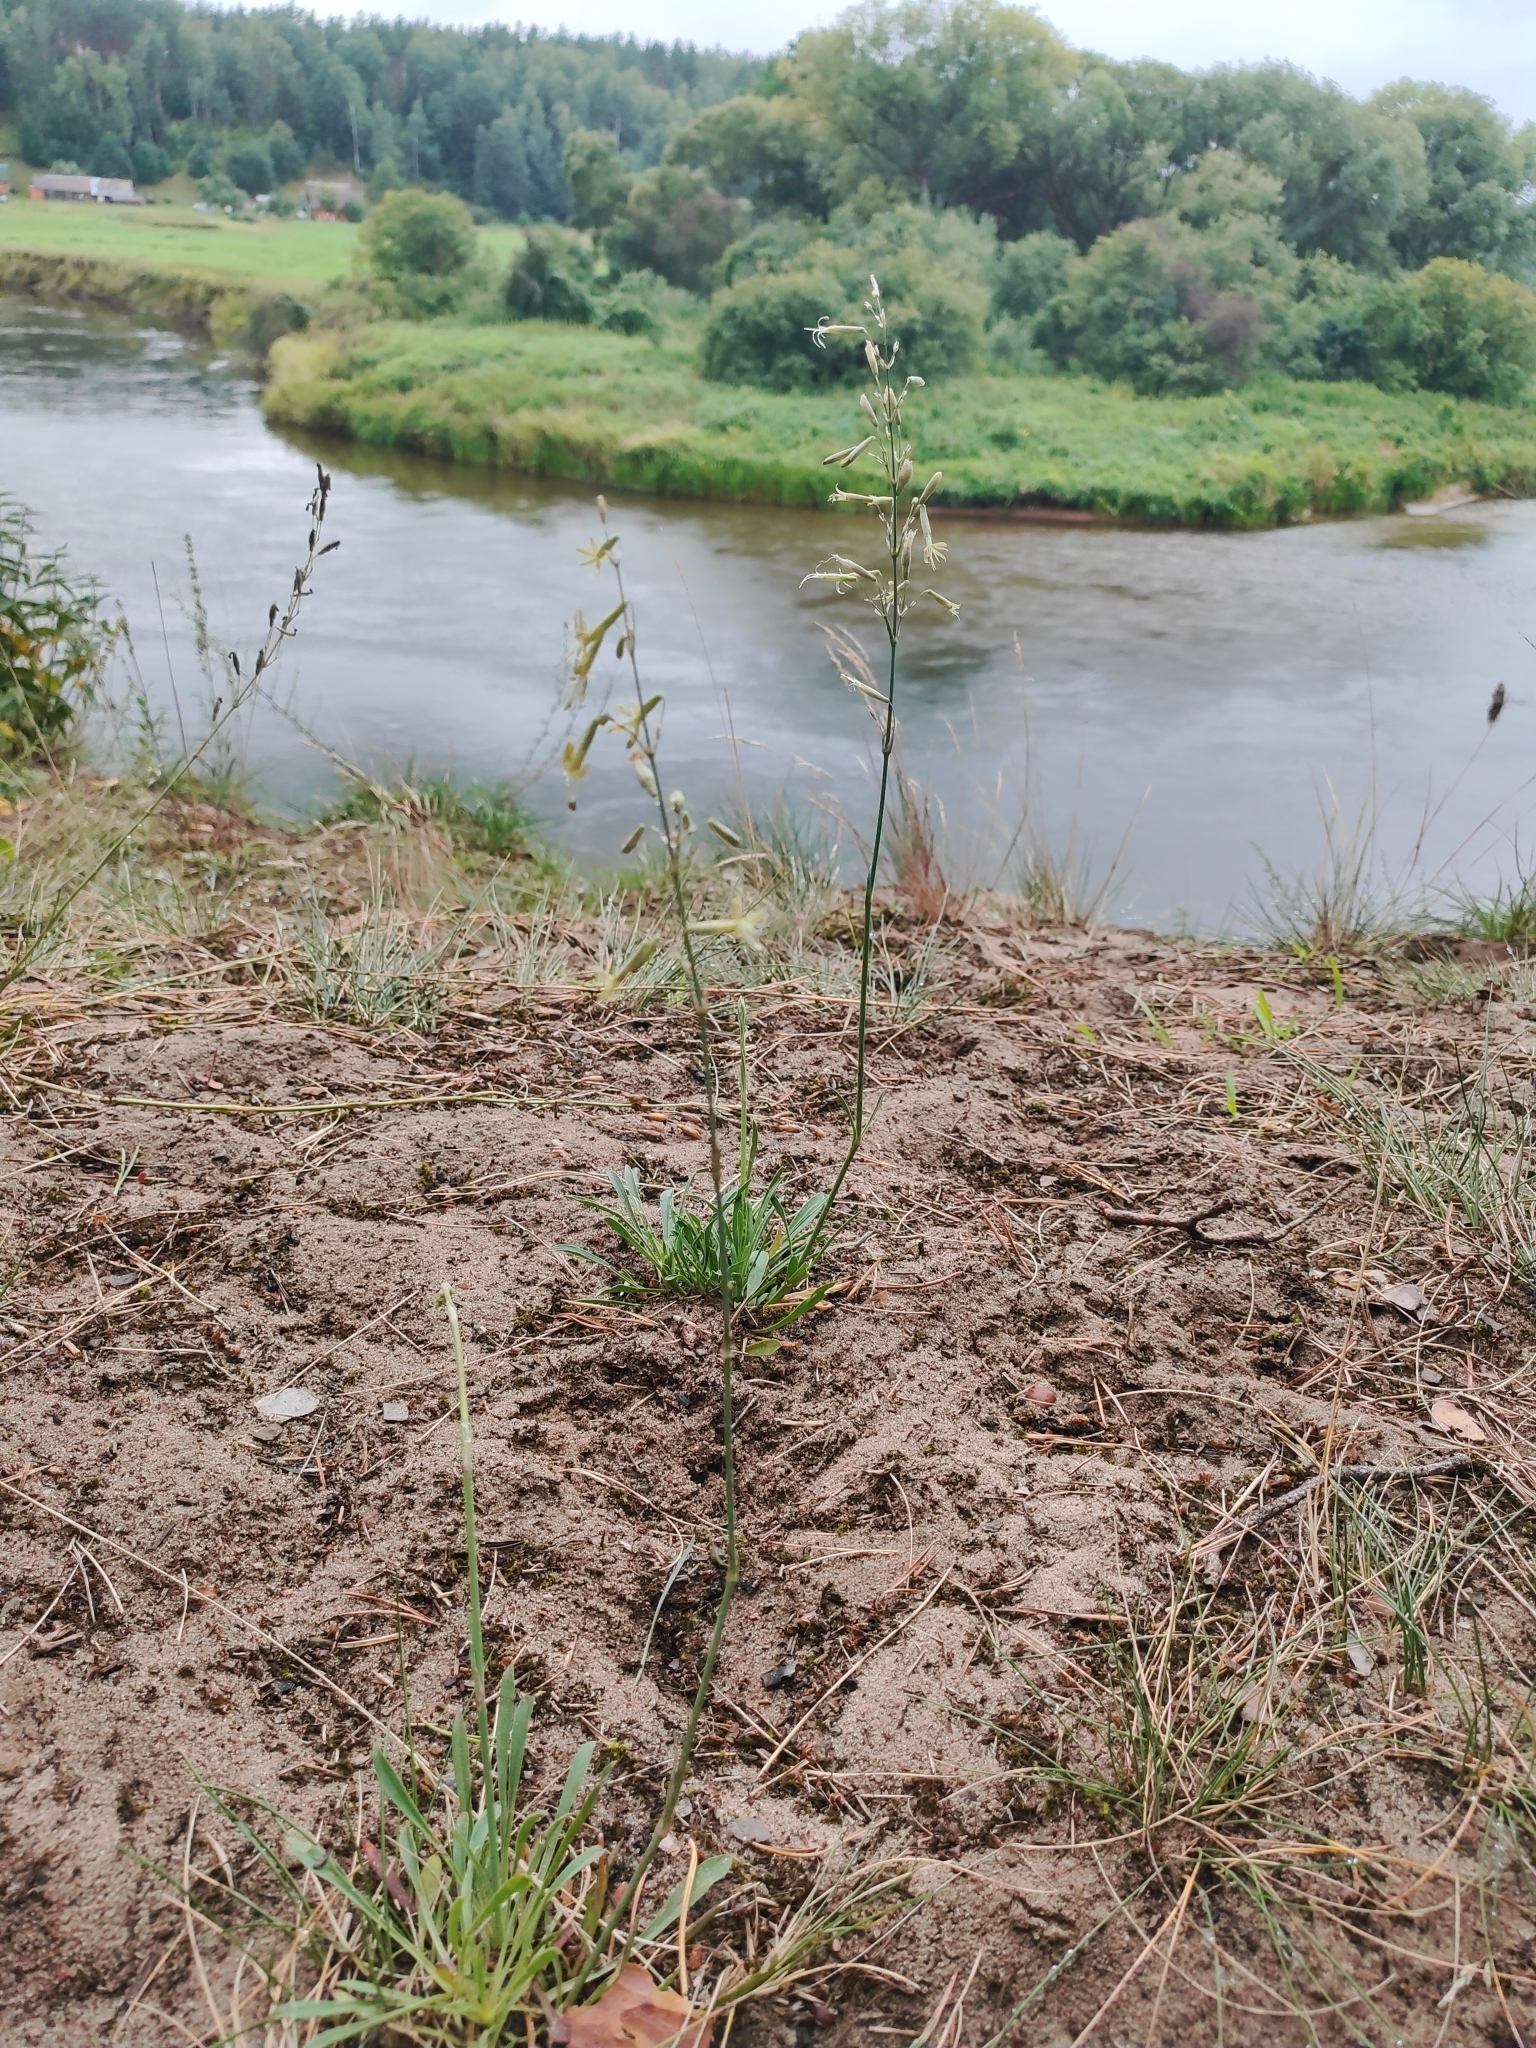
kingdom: Plantae
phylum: Tracheophyta
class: Magnoliopsida
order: Caryophyllales
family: Caryophyllaceae
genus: Silene
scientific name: Silene chlorantha
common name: Yellowgreen catchfly
